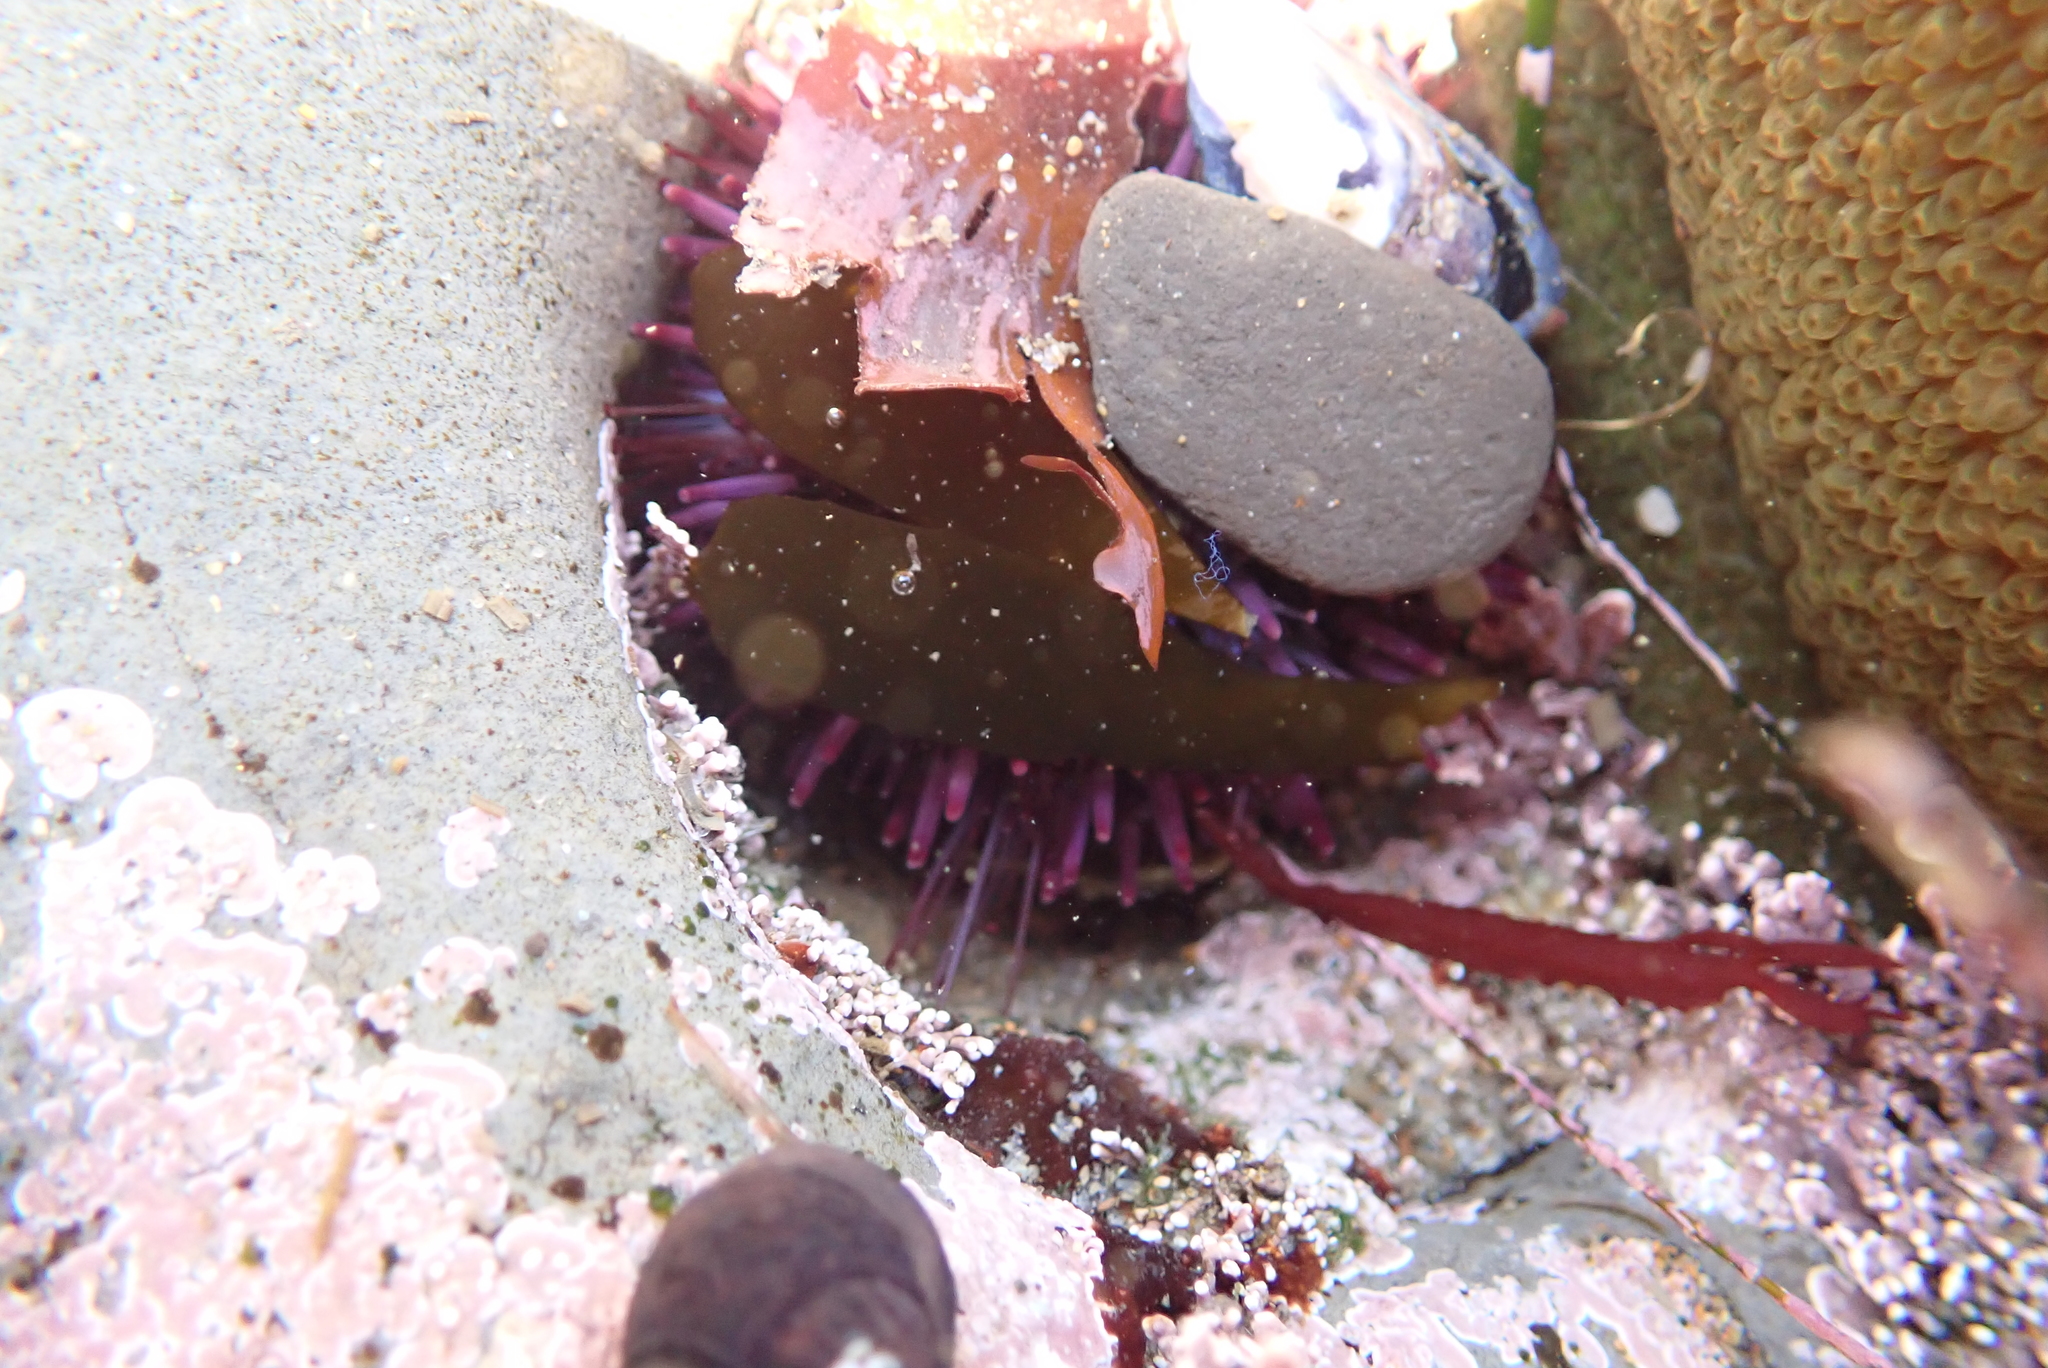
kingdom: Animalia
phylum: Echinodermata
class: Echinoidea
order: Camarodonta
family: Strongylocentrotidae
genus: Strongylocentrotus
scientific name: Strongylocentrotus purpuratus
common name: Purple sea urchin
